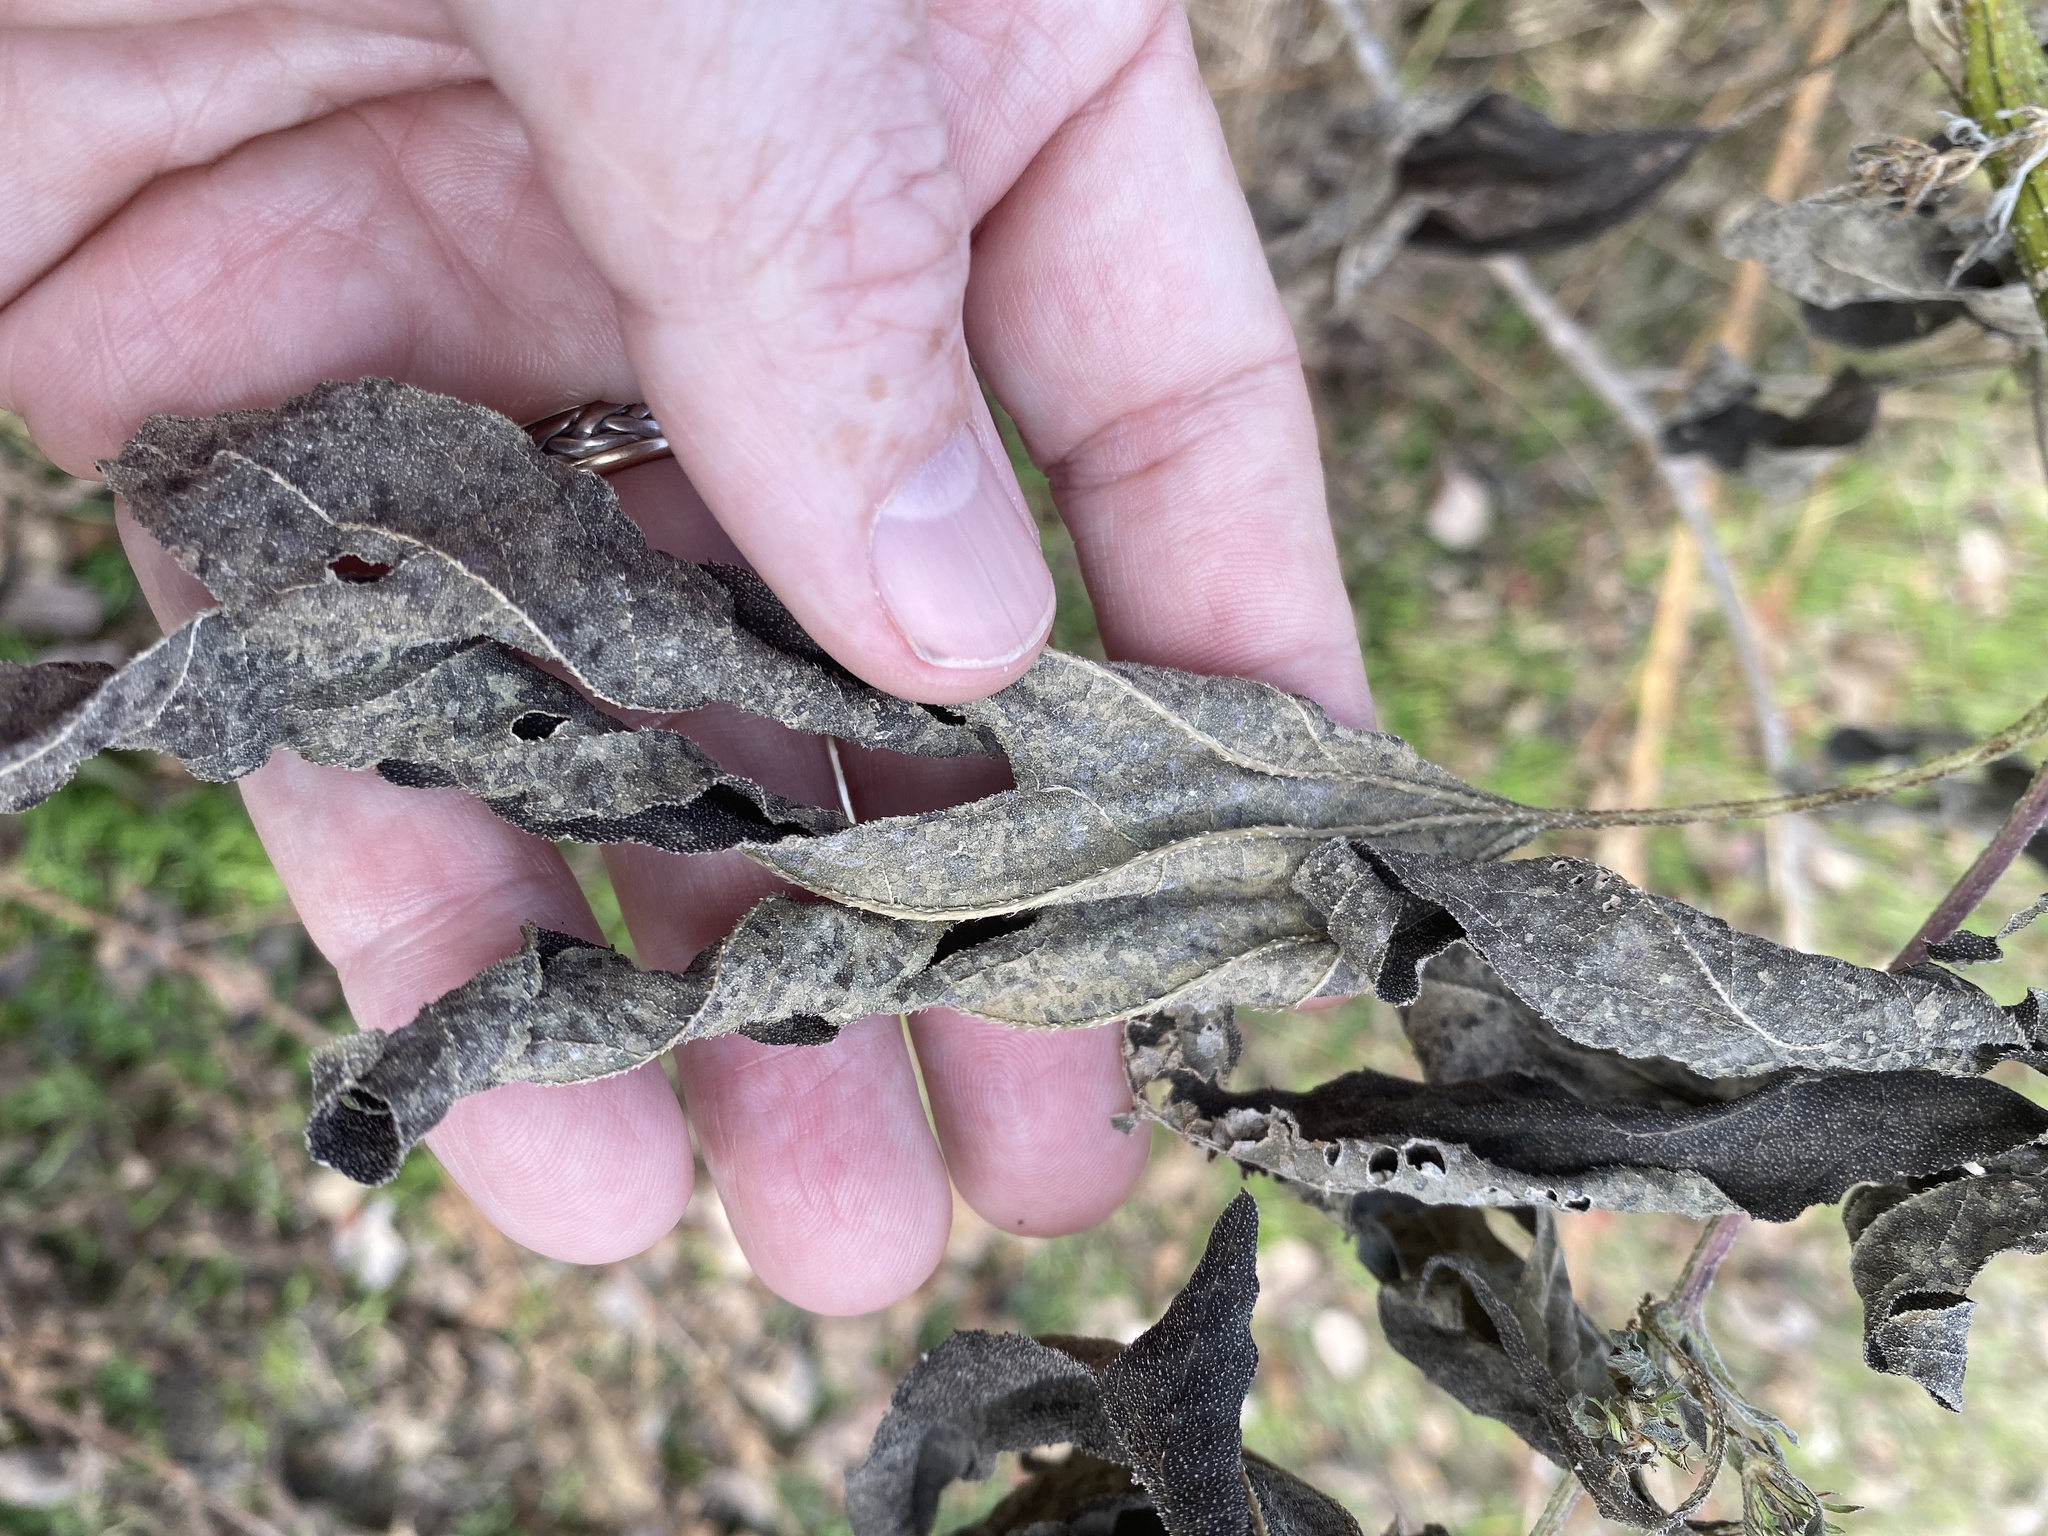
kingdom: Plantae
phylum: Tracheophyta
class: Magnoliopsida
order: Asterales
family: Asteraceae
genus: Ambrosia
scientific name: Ambrosia trifida
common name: Giant ragweed
